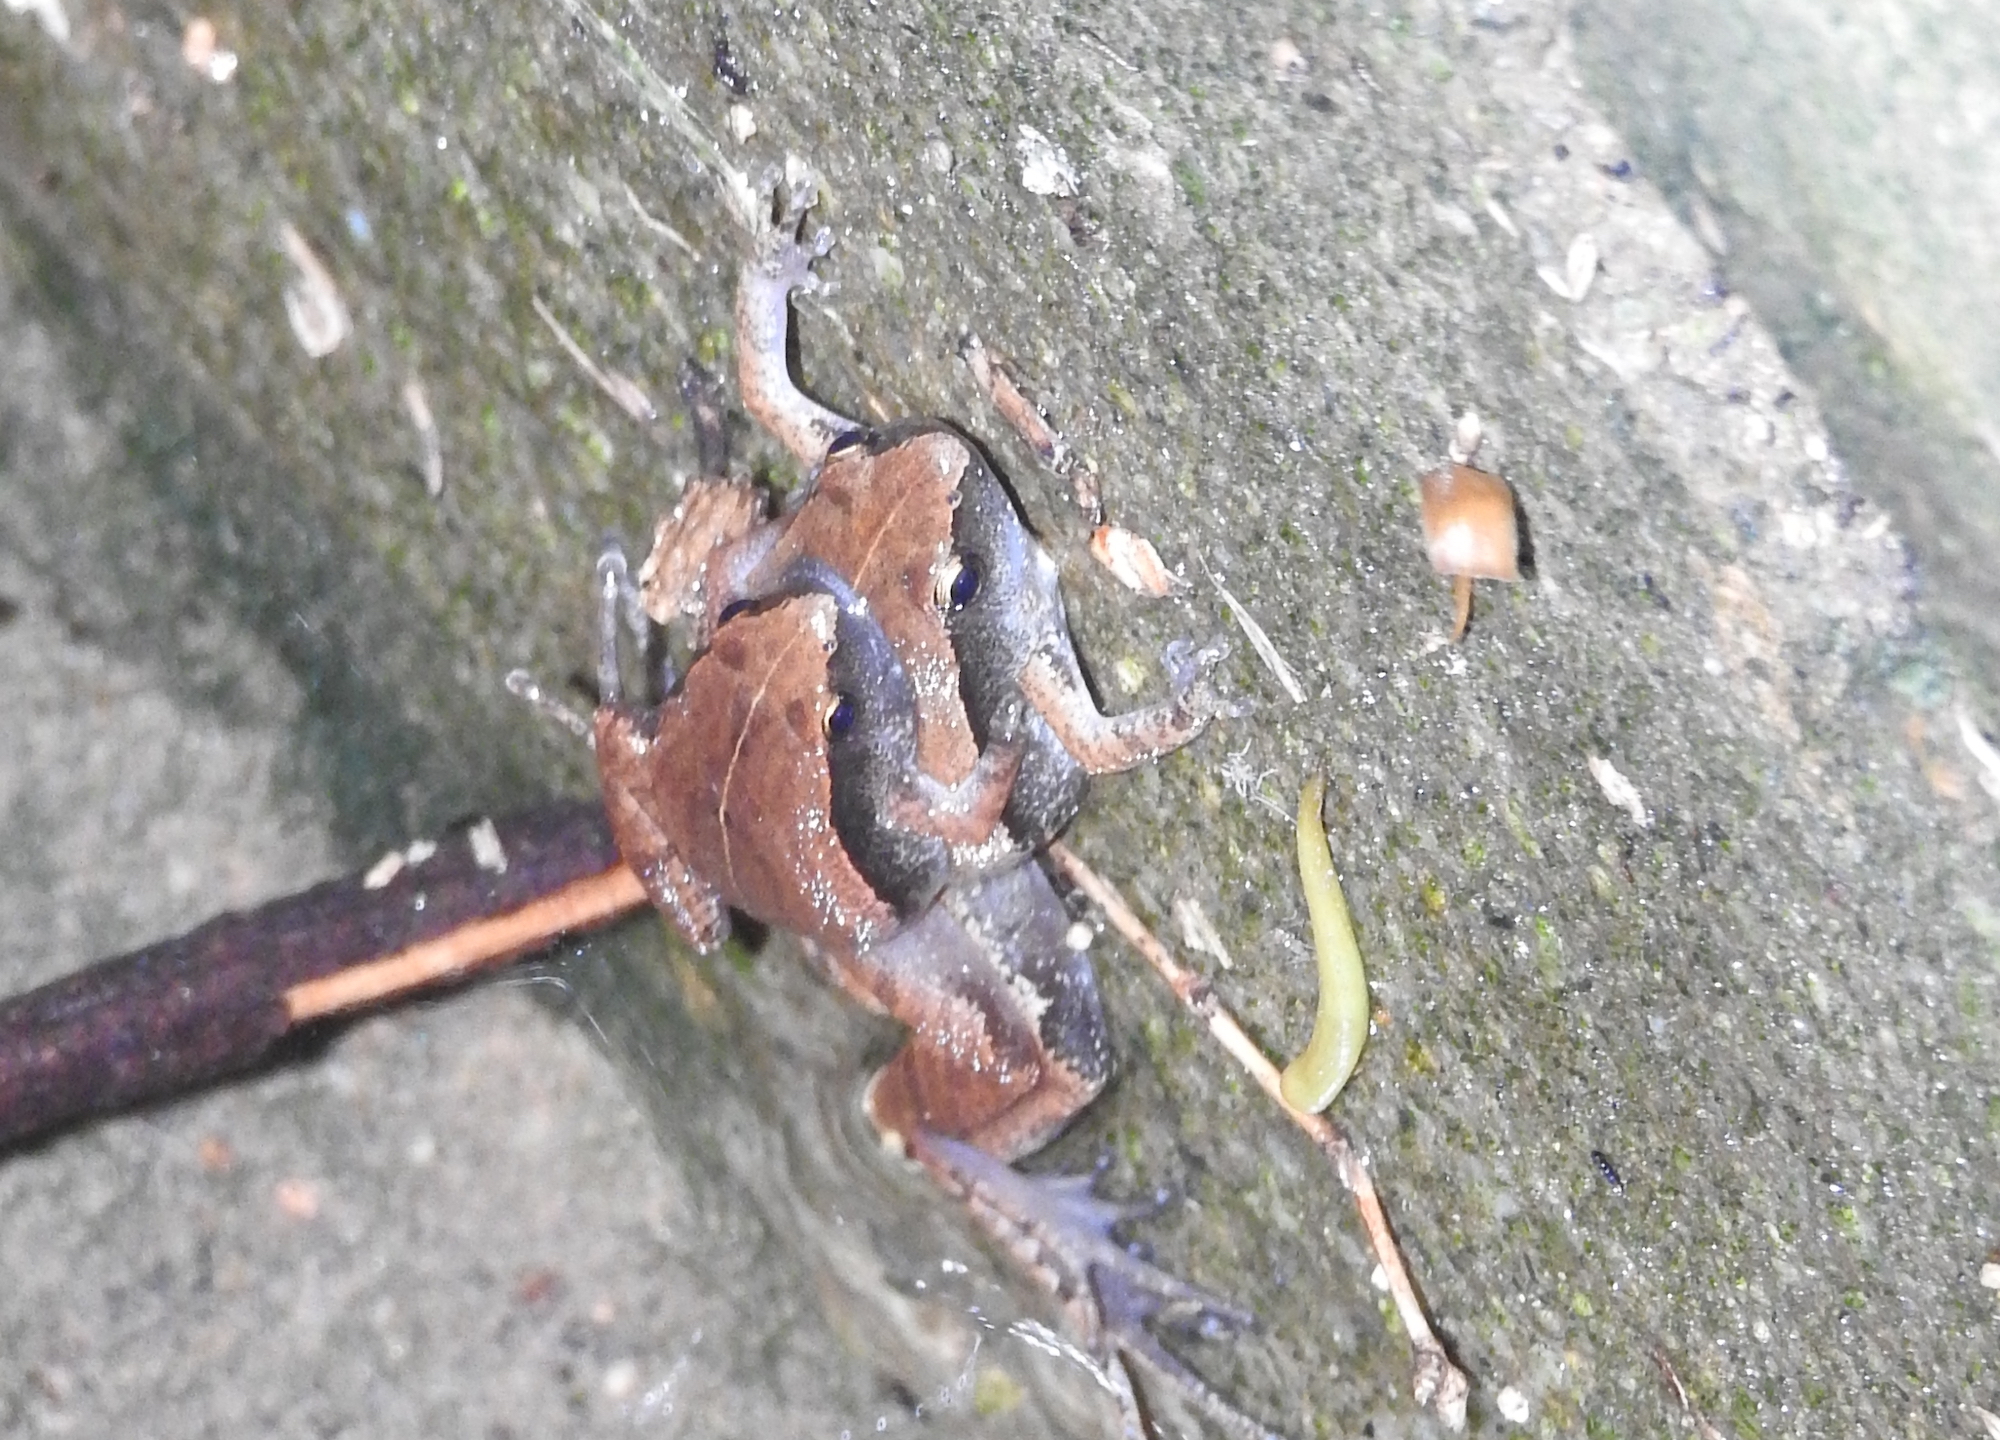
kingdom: Animalia
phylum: Chordata
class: Amphibia
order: Anura
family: Microhylidae
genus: Microhyla
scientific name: Microhyla heymonsi
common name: Taiwan rice frog,dark sided chorus frog
